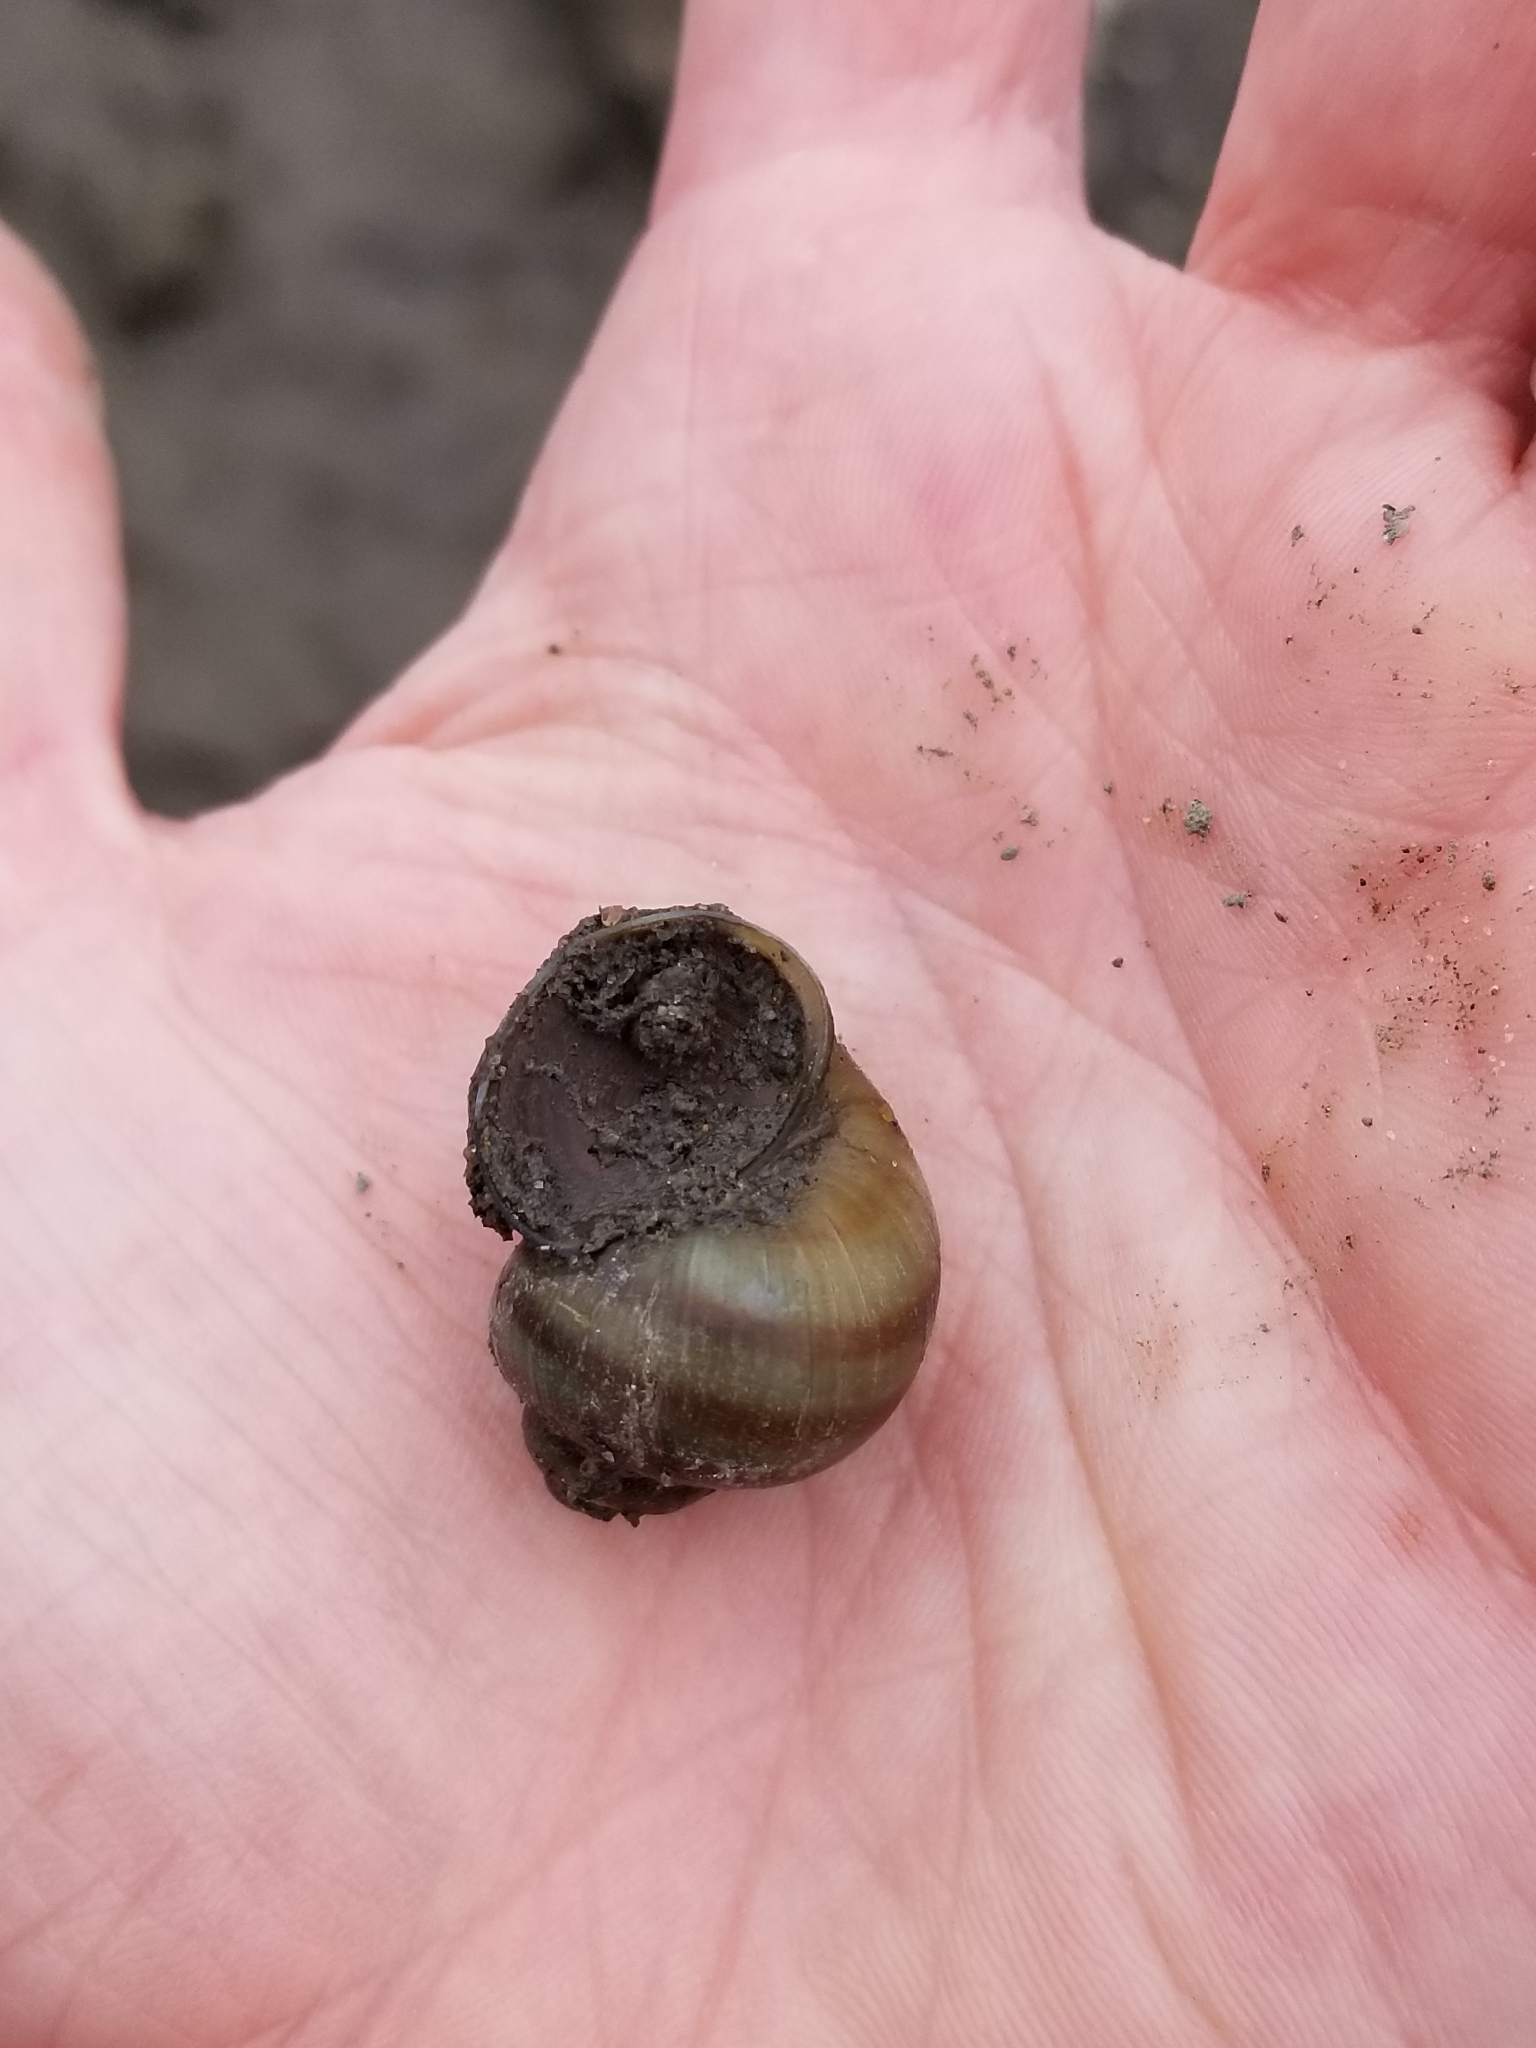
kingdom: Animalia
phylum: Mollusca
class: Gastropoda
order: Architaenioglossa
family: Viviparidae
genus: Callinina
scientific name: Callinina georgiana
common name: Banded mystery snail
